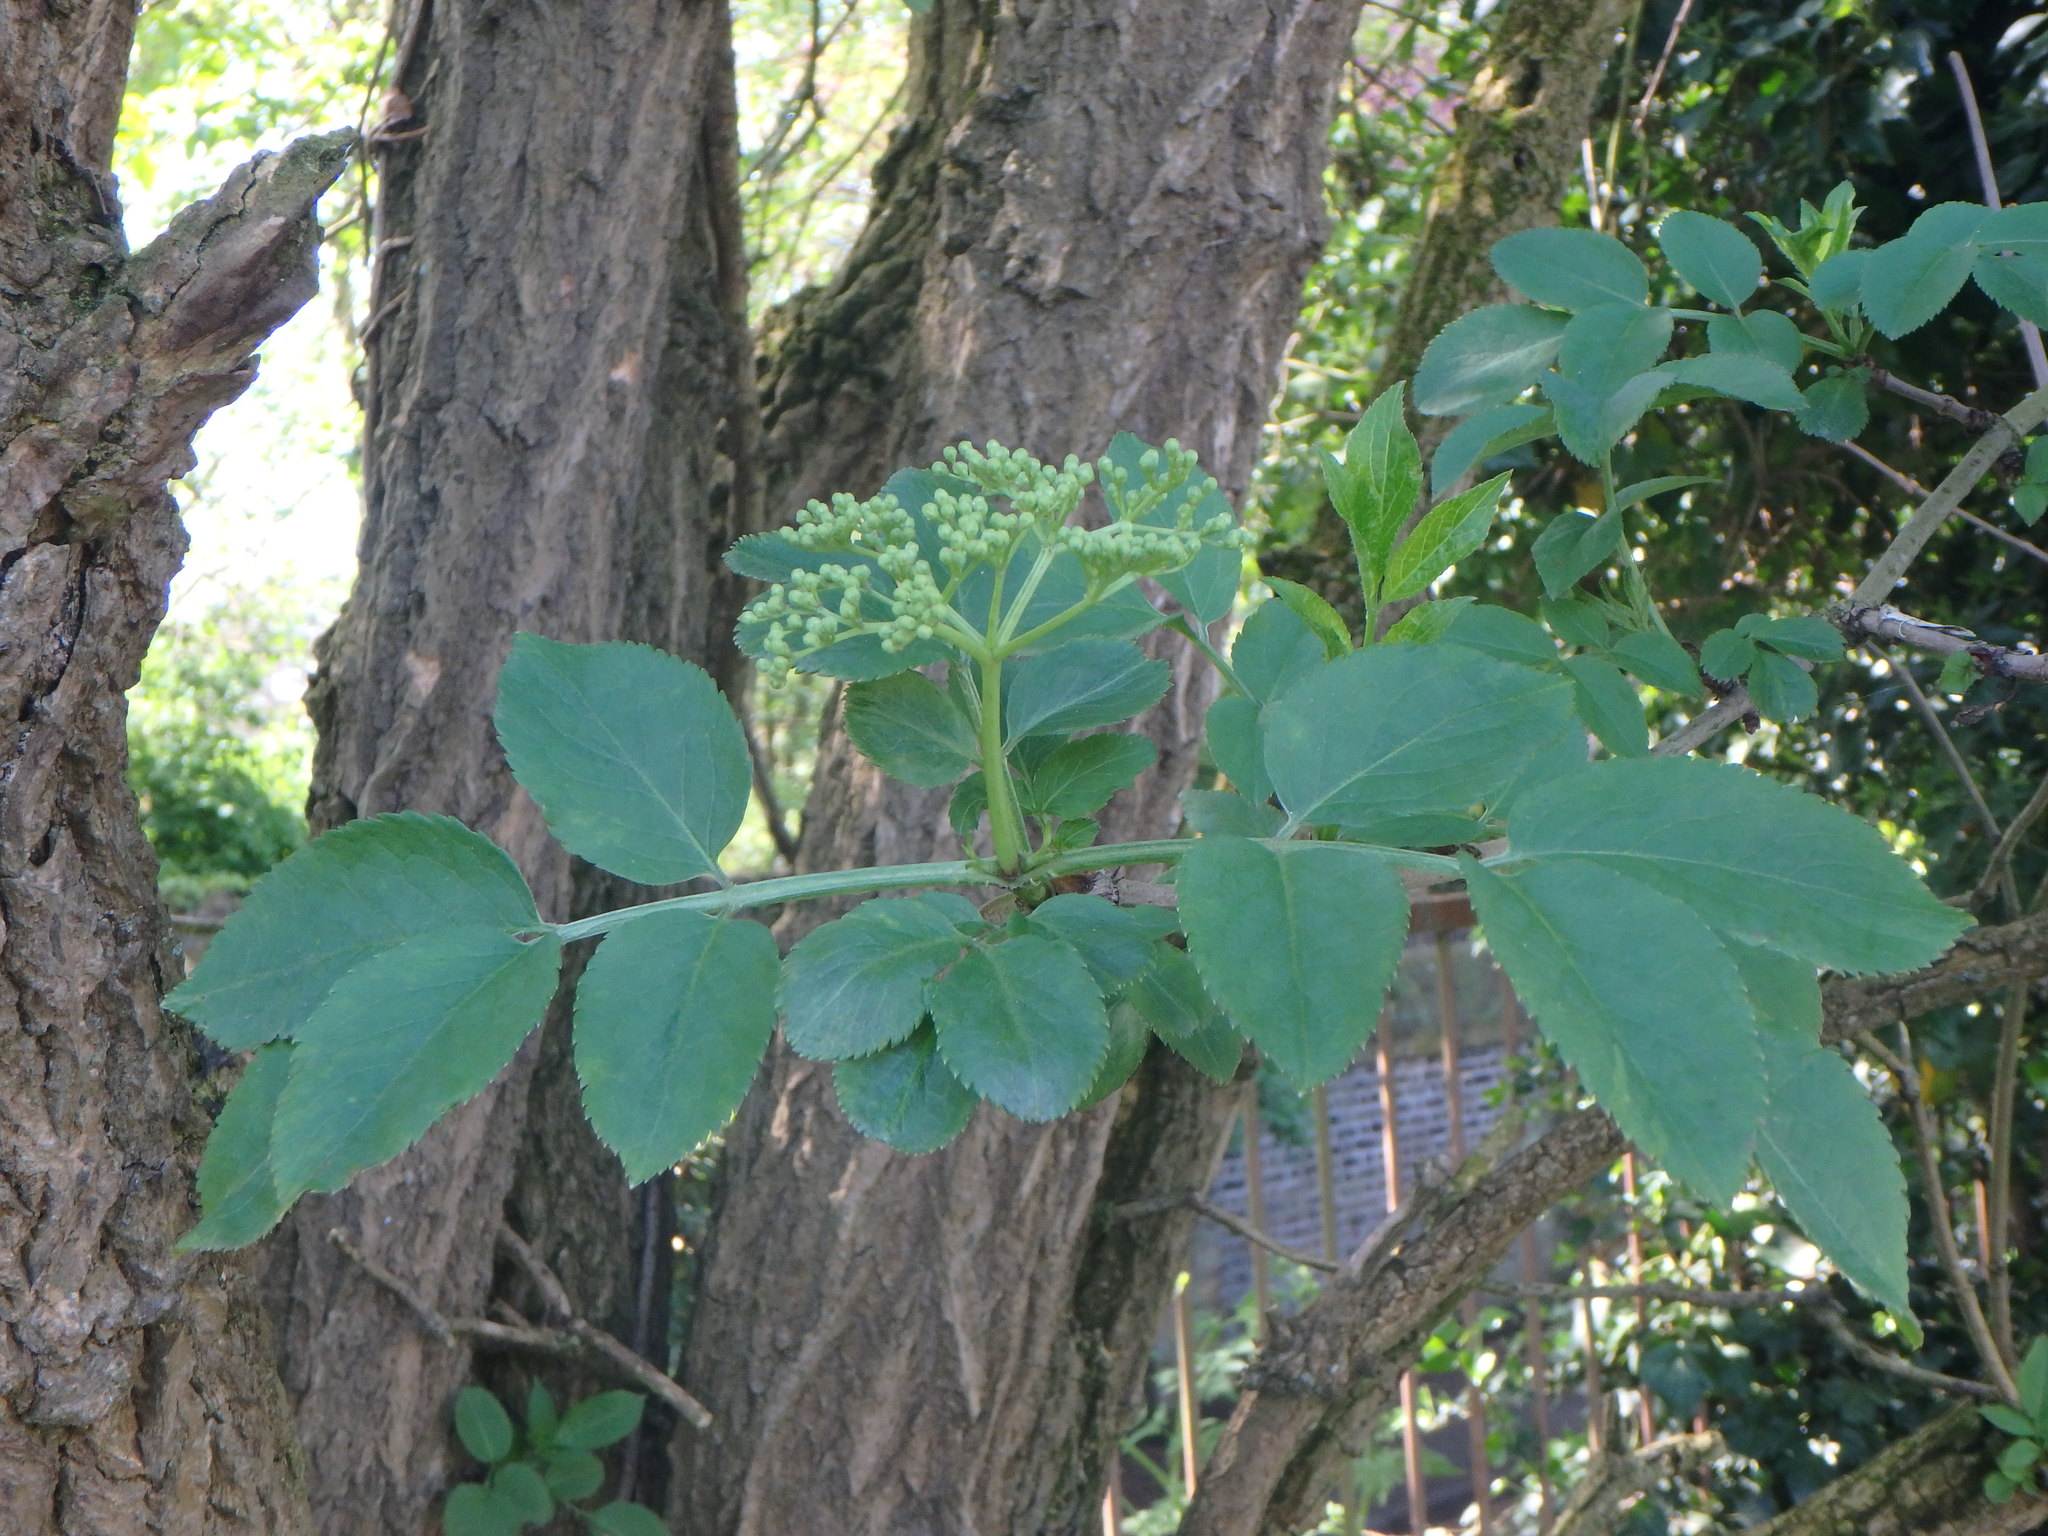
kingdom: Plantae
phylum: Tracheophyta
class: Magnoliopsida
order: Dipsacales
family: Viburnaceae
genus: Sambucus
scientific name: Sambucus nigra
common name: Elder
